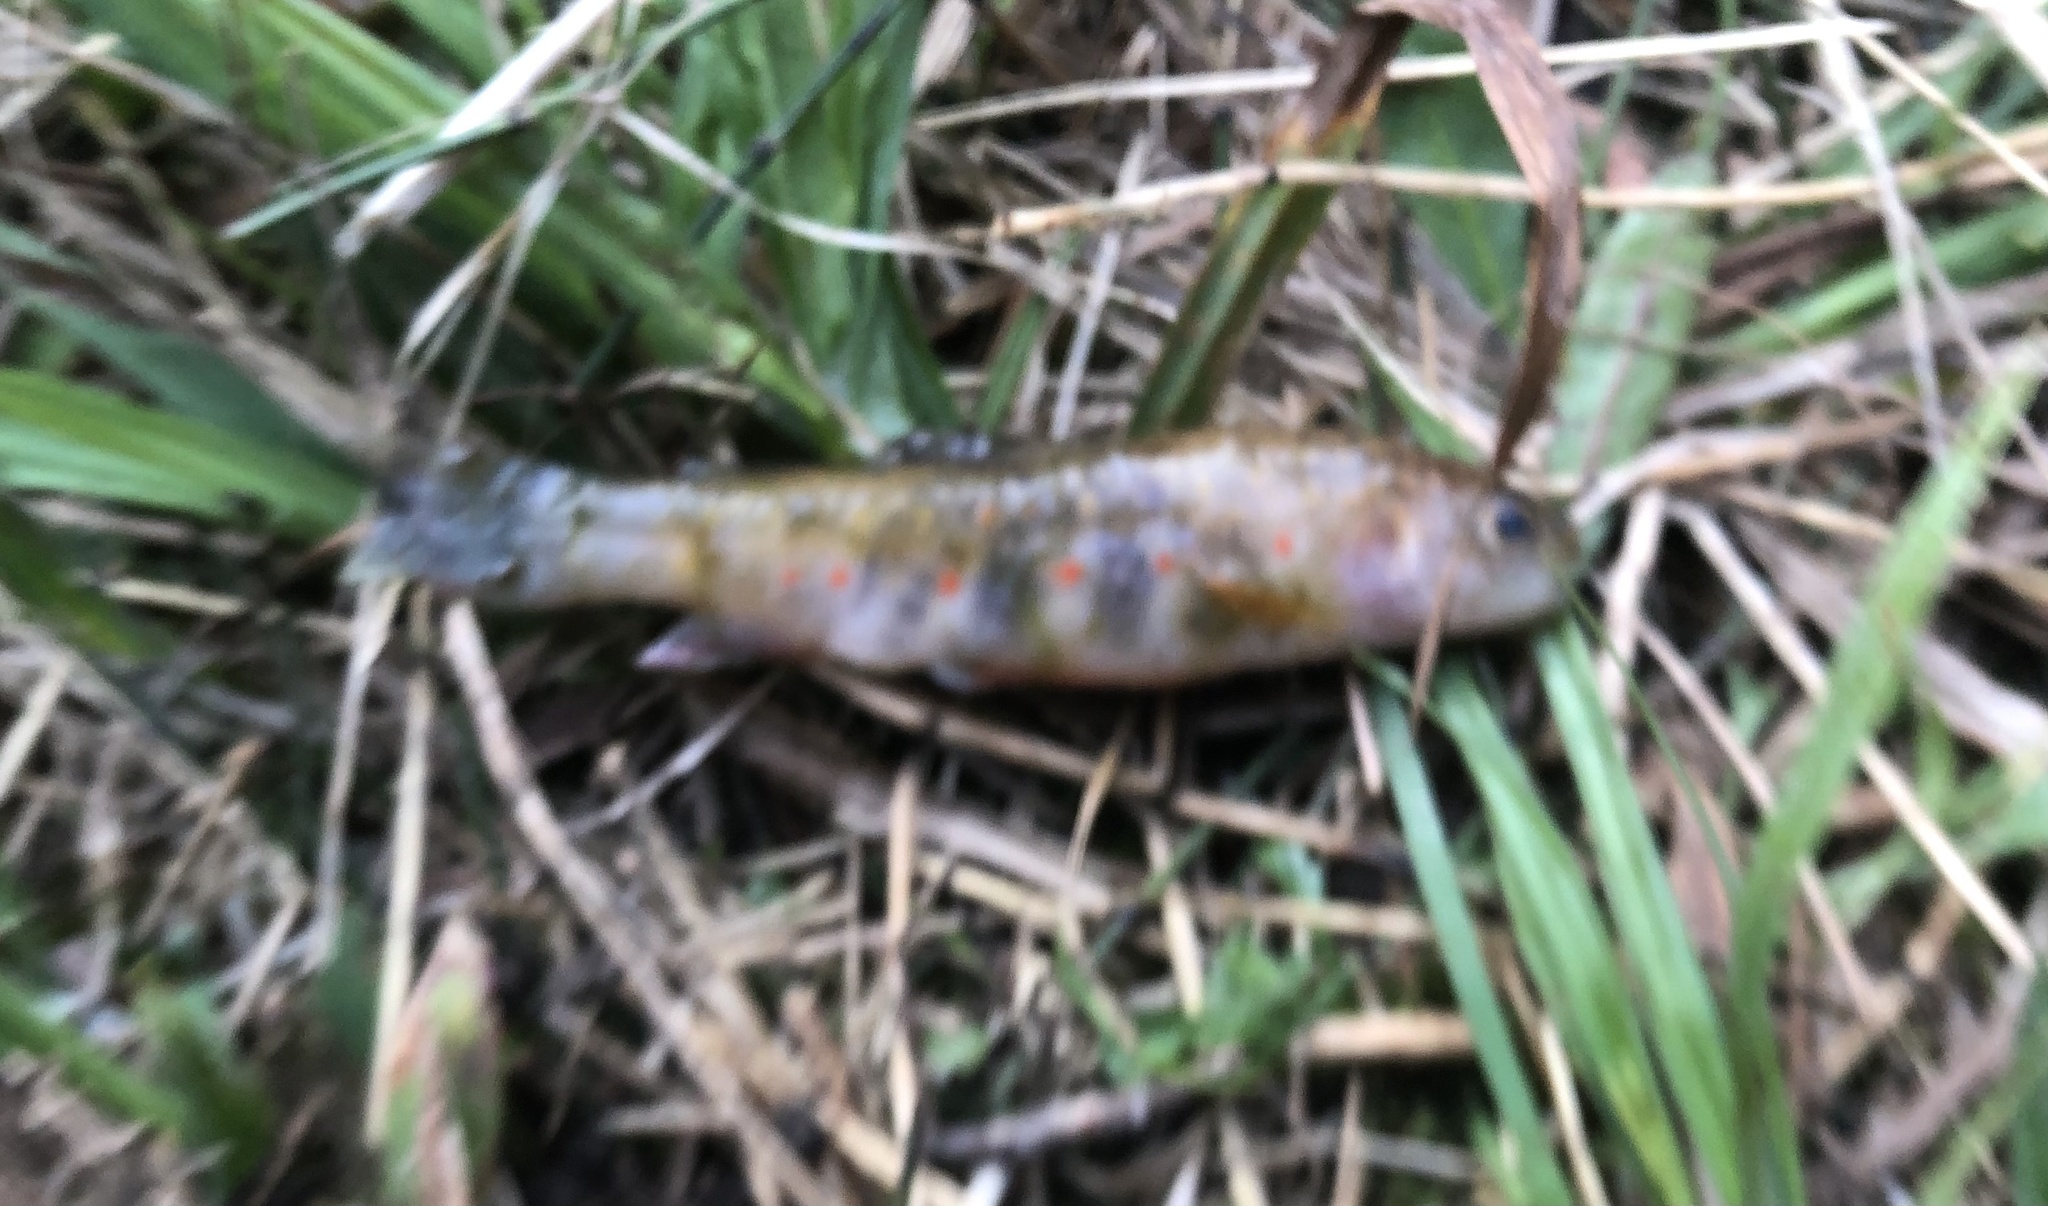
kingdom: Animalia
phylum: Chordata
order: Salmoniformes
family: Salmonidae
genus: Salvelinus
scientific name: Salvelinus fontinalis
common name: Brook trout
